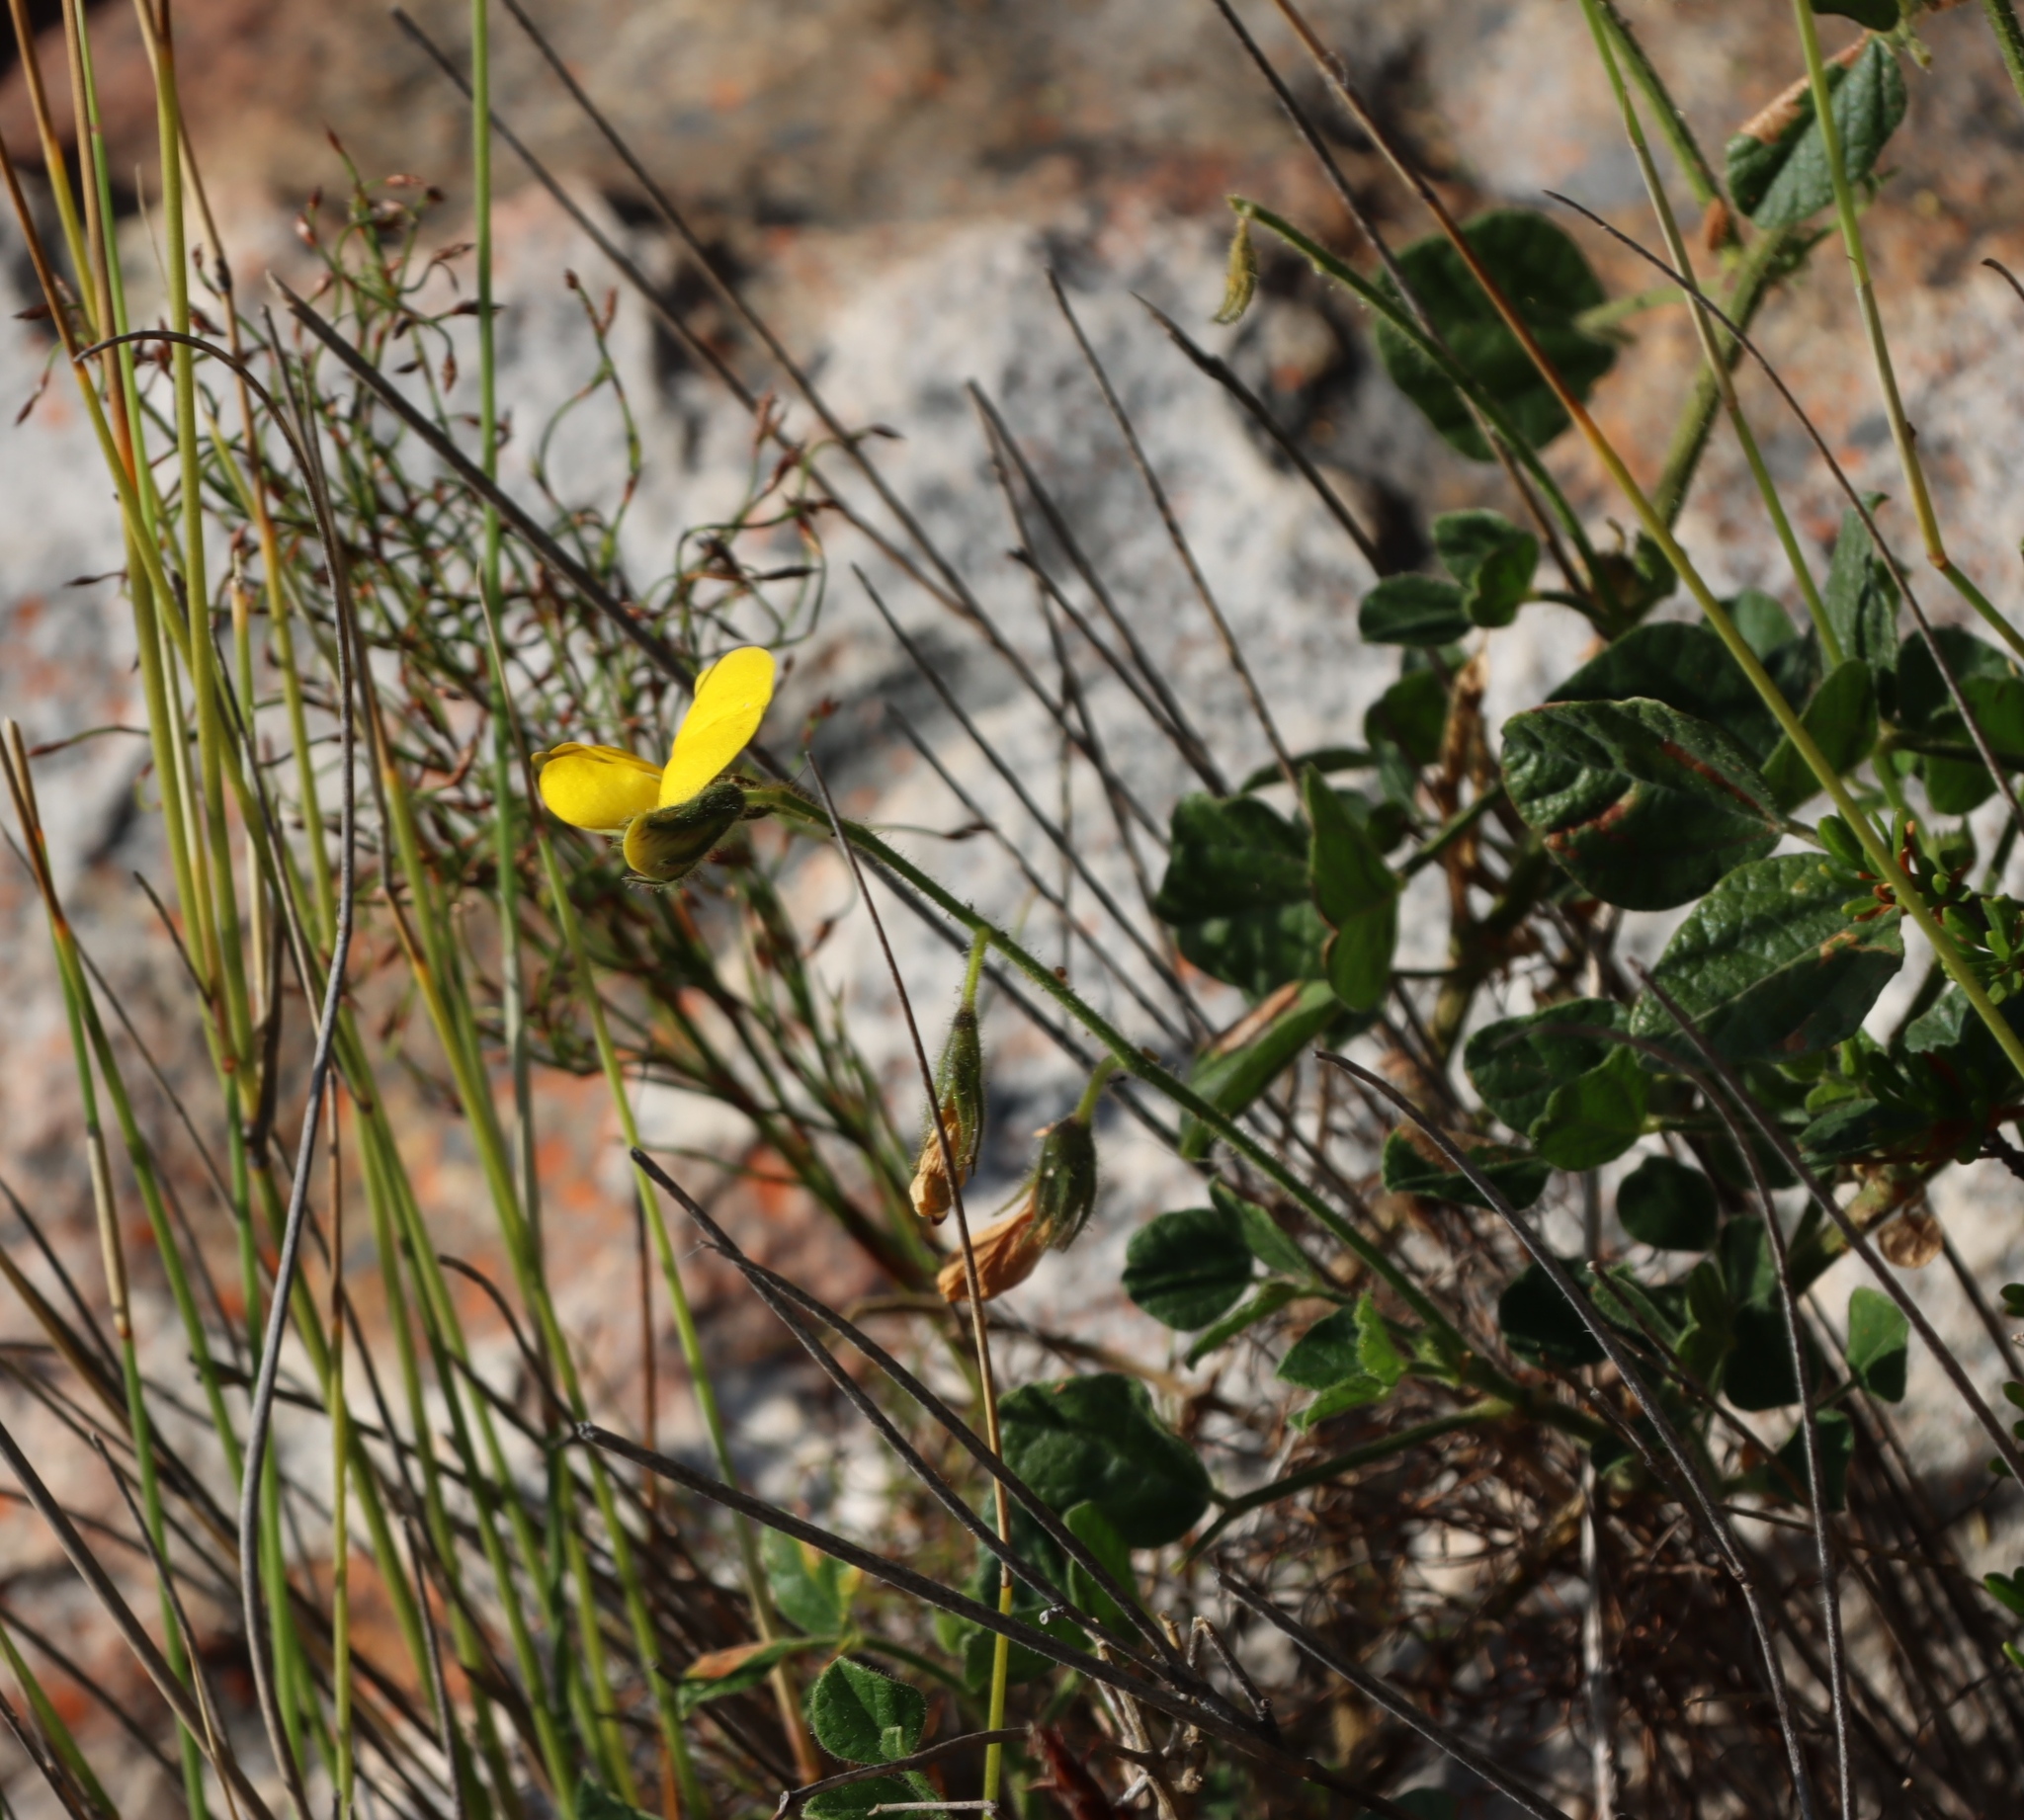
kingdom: Plantae
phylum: Tracheophyta
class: Magnoliopsida
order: Fabales
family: Fabaceae
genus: Bolusafra
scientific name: Bolusafra bituminosa
